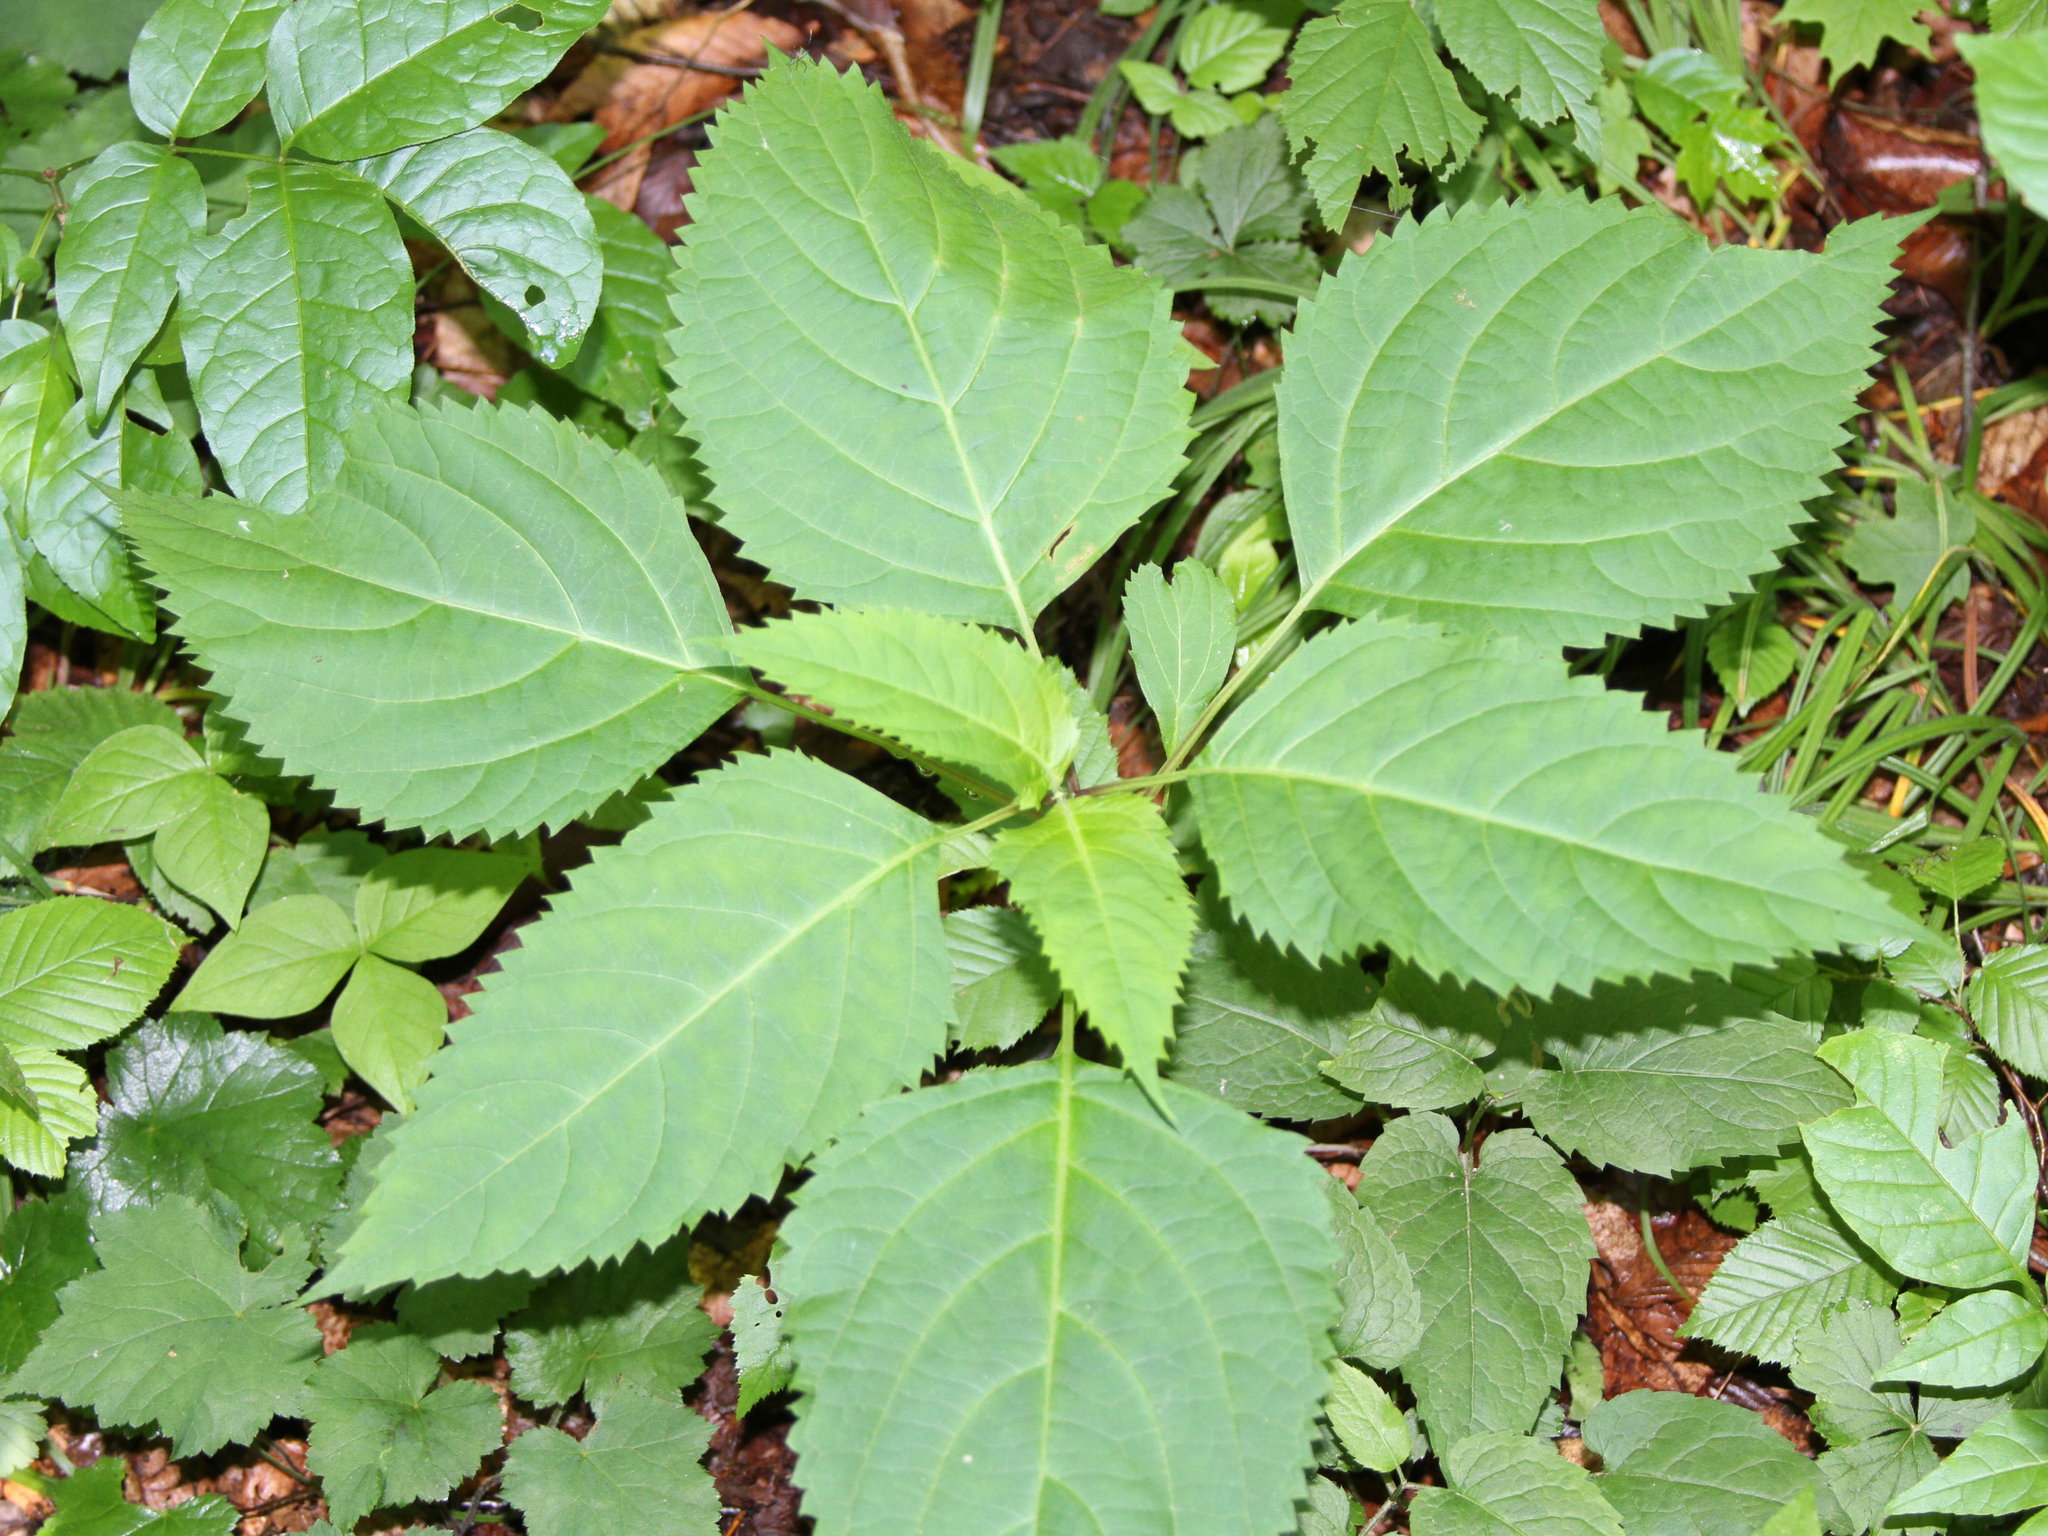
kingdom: Plantae
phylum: Tracheophyta
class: Magnoliopsida
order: Lamiales
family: Lamiaceae
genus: Collinsonia
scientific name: Collinsonia canadensis
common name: Northern horsebalm
